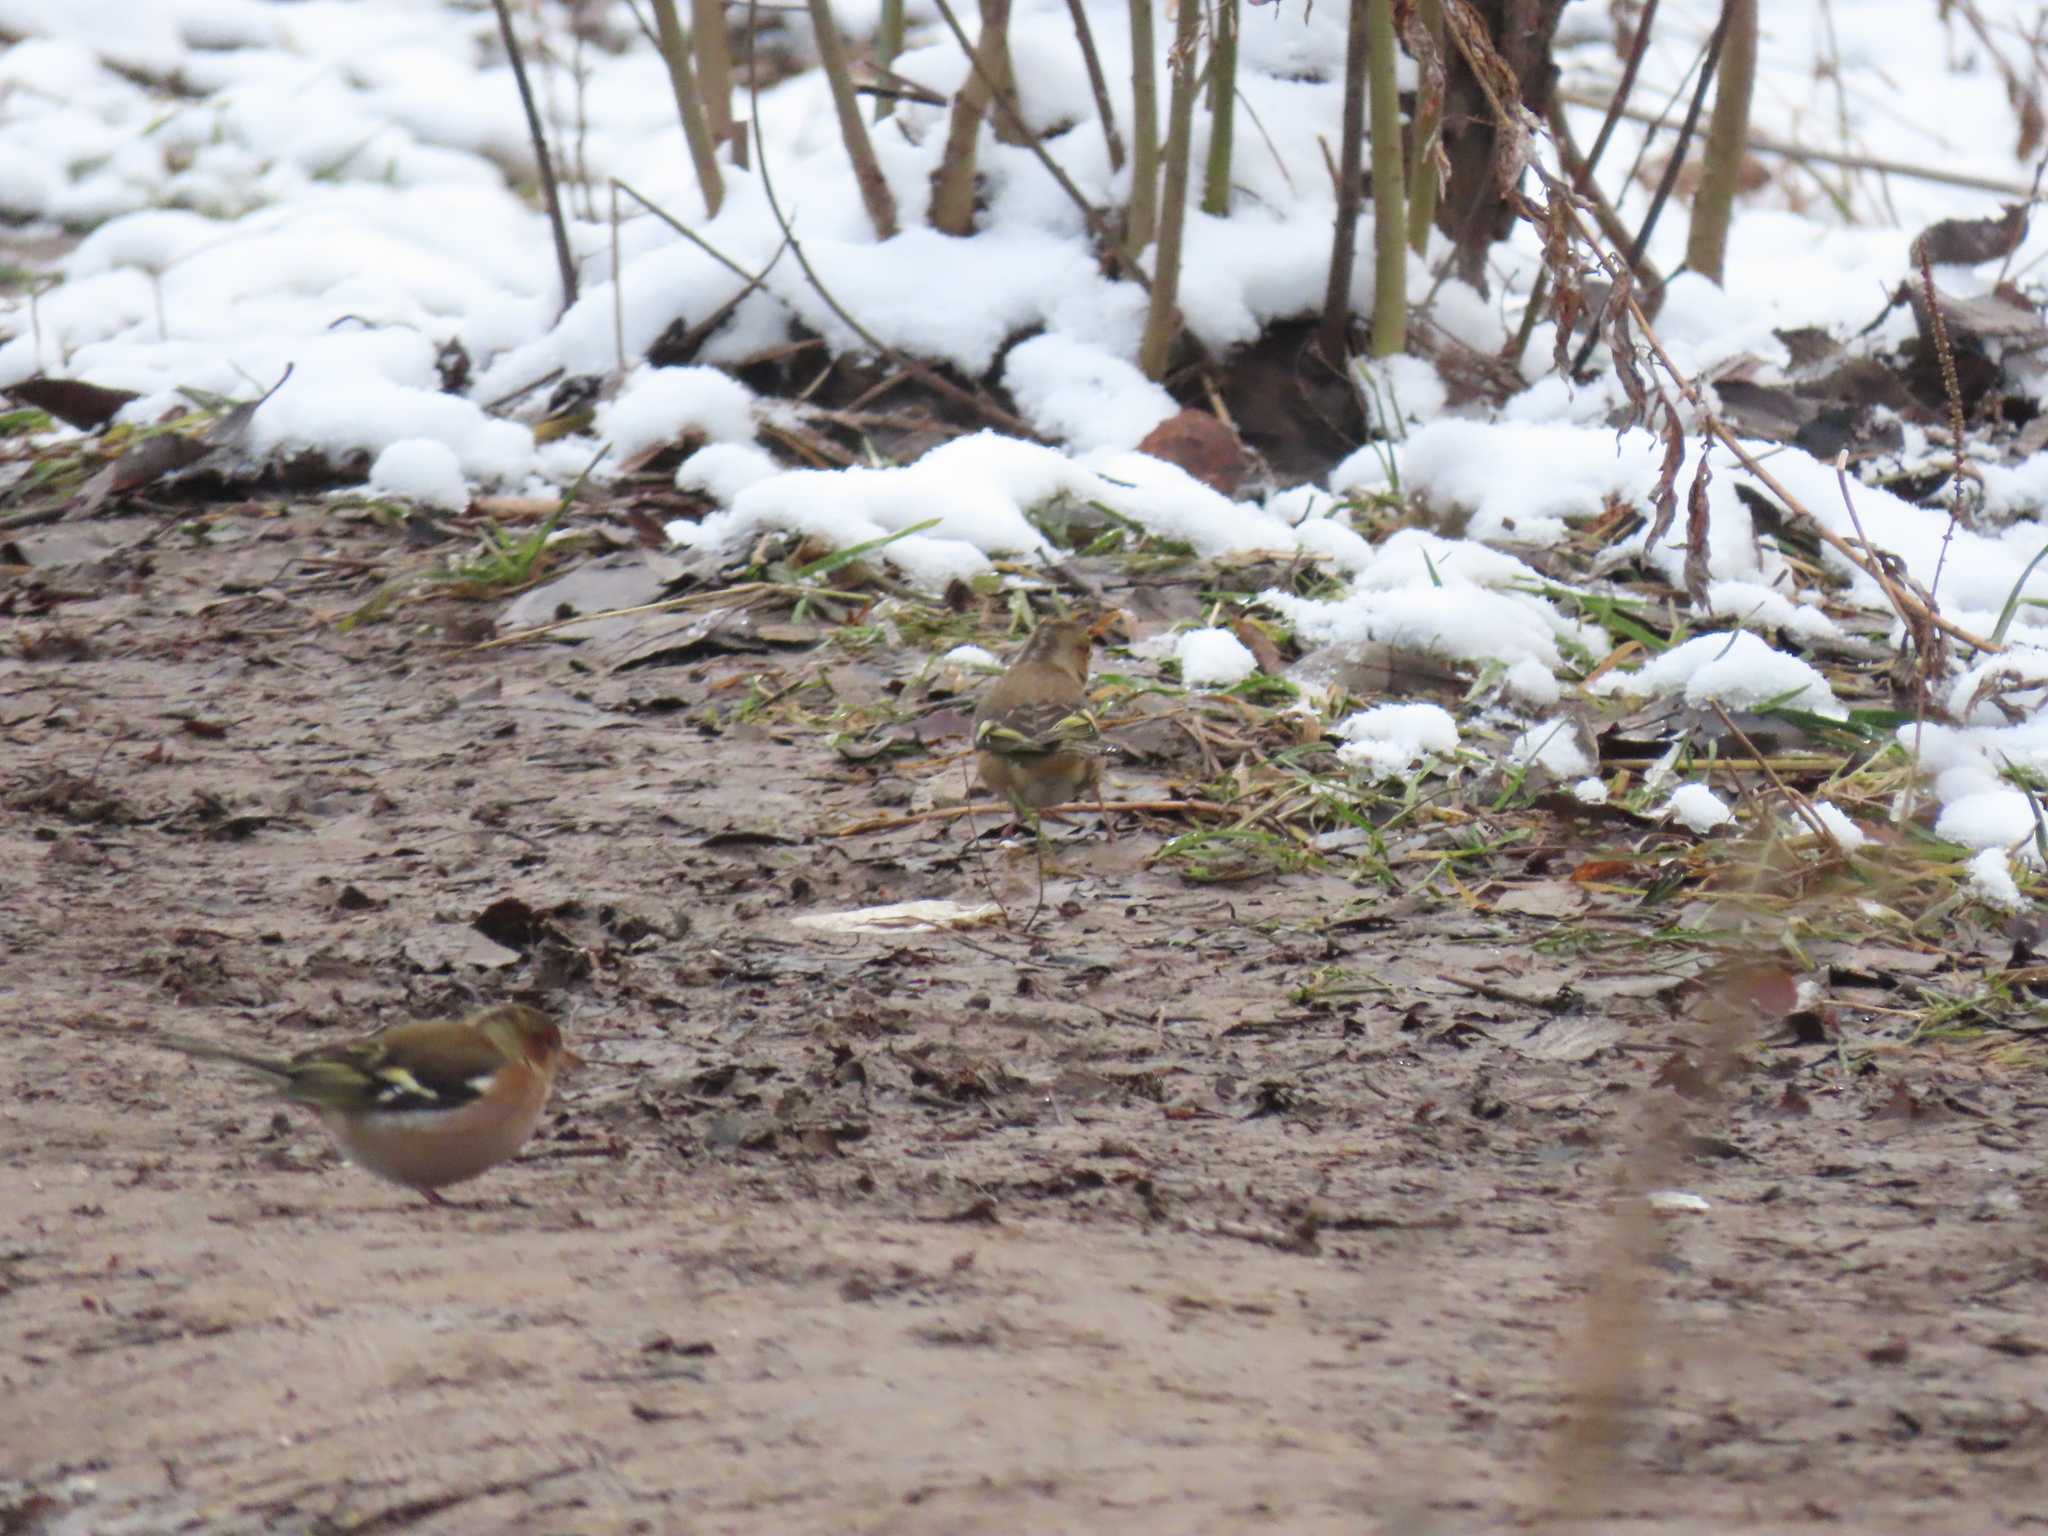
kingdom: Animalia
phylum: Chordata
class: Aves
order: Passeriformes
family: Fringillidae
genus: Fringilla
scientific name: Fringilla coelebs
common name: Common chaffinch
